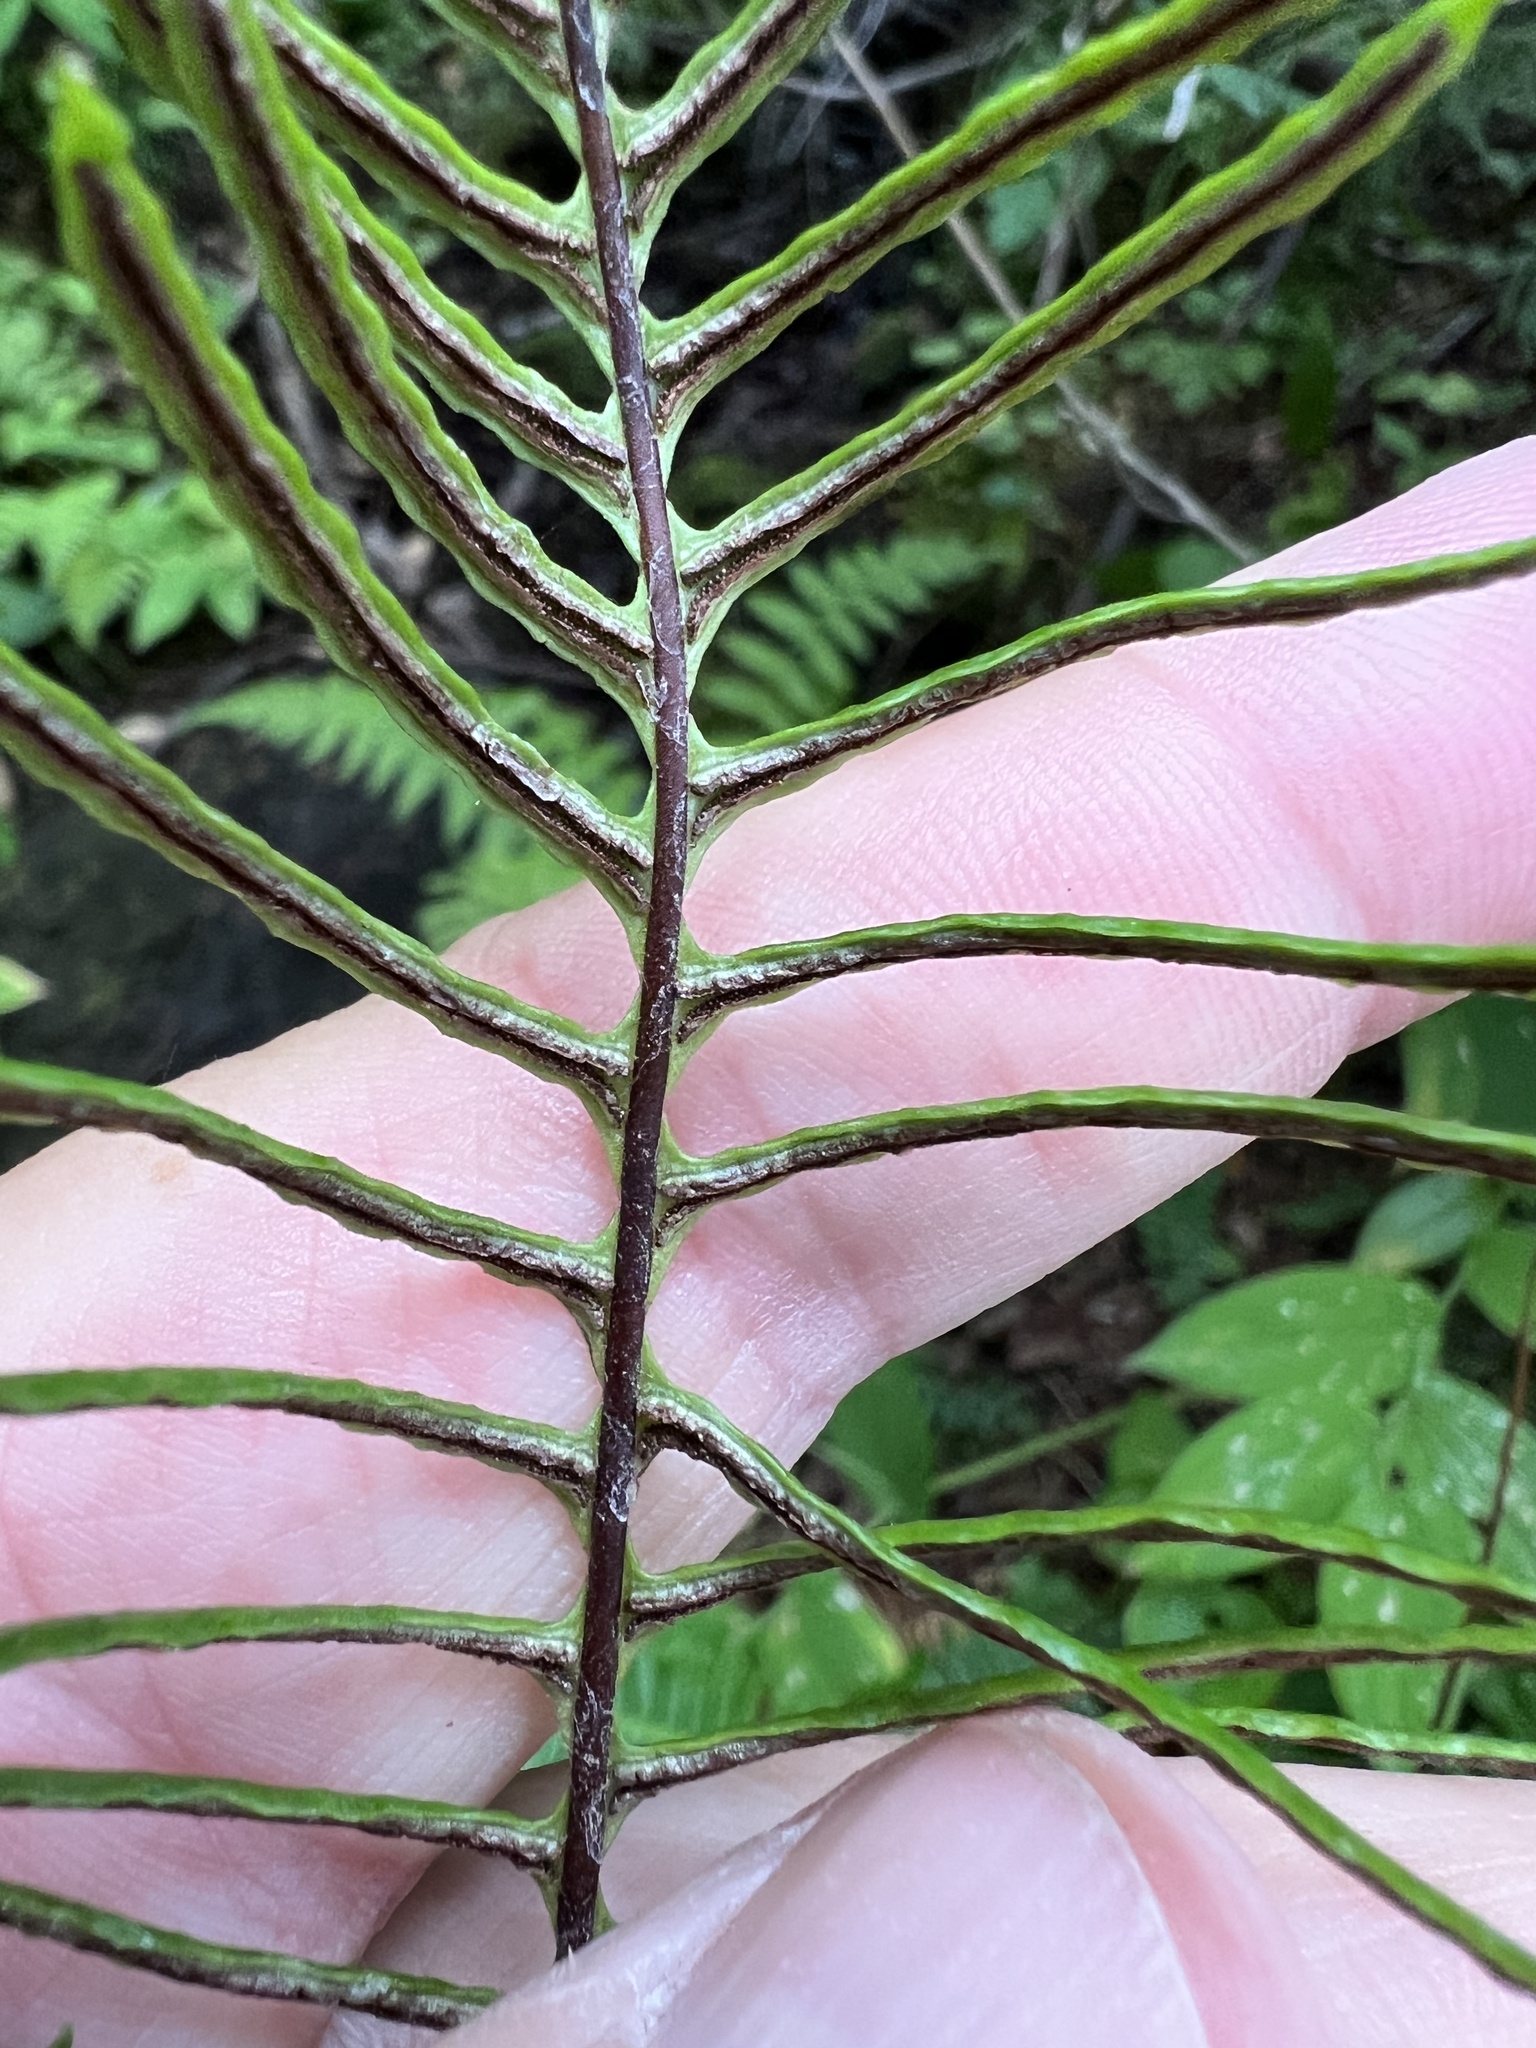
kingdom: Plantae
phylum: Tracheophyta
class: Polypodiopsida
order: Polypodiales
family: Blechnaceae
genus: Struthiopteris
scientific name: Struthiopteris spicant
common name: Deer fern
